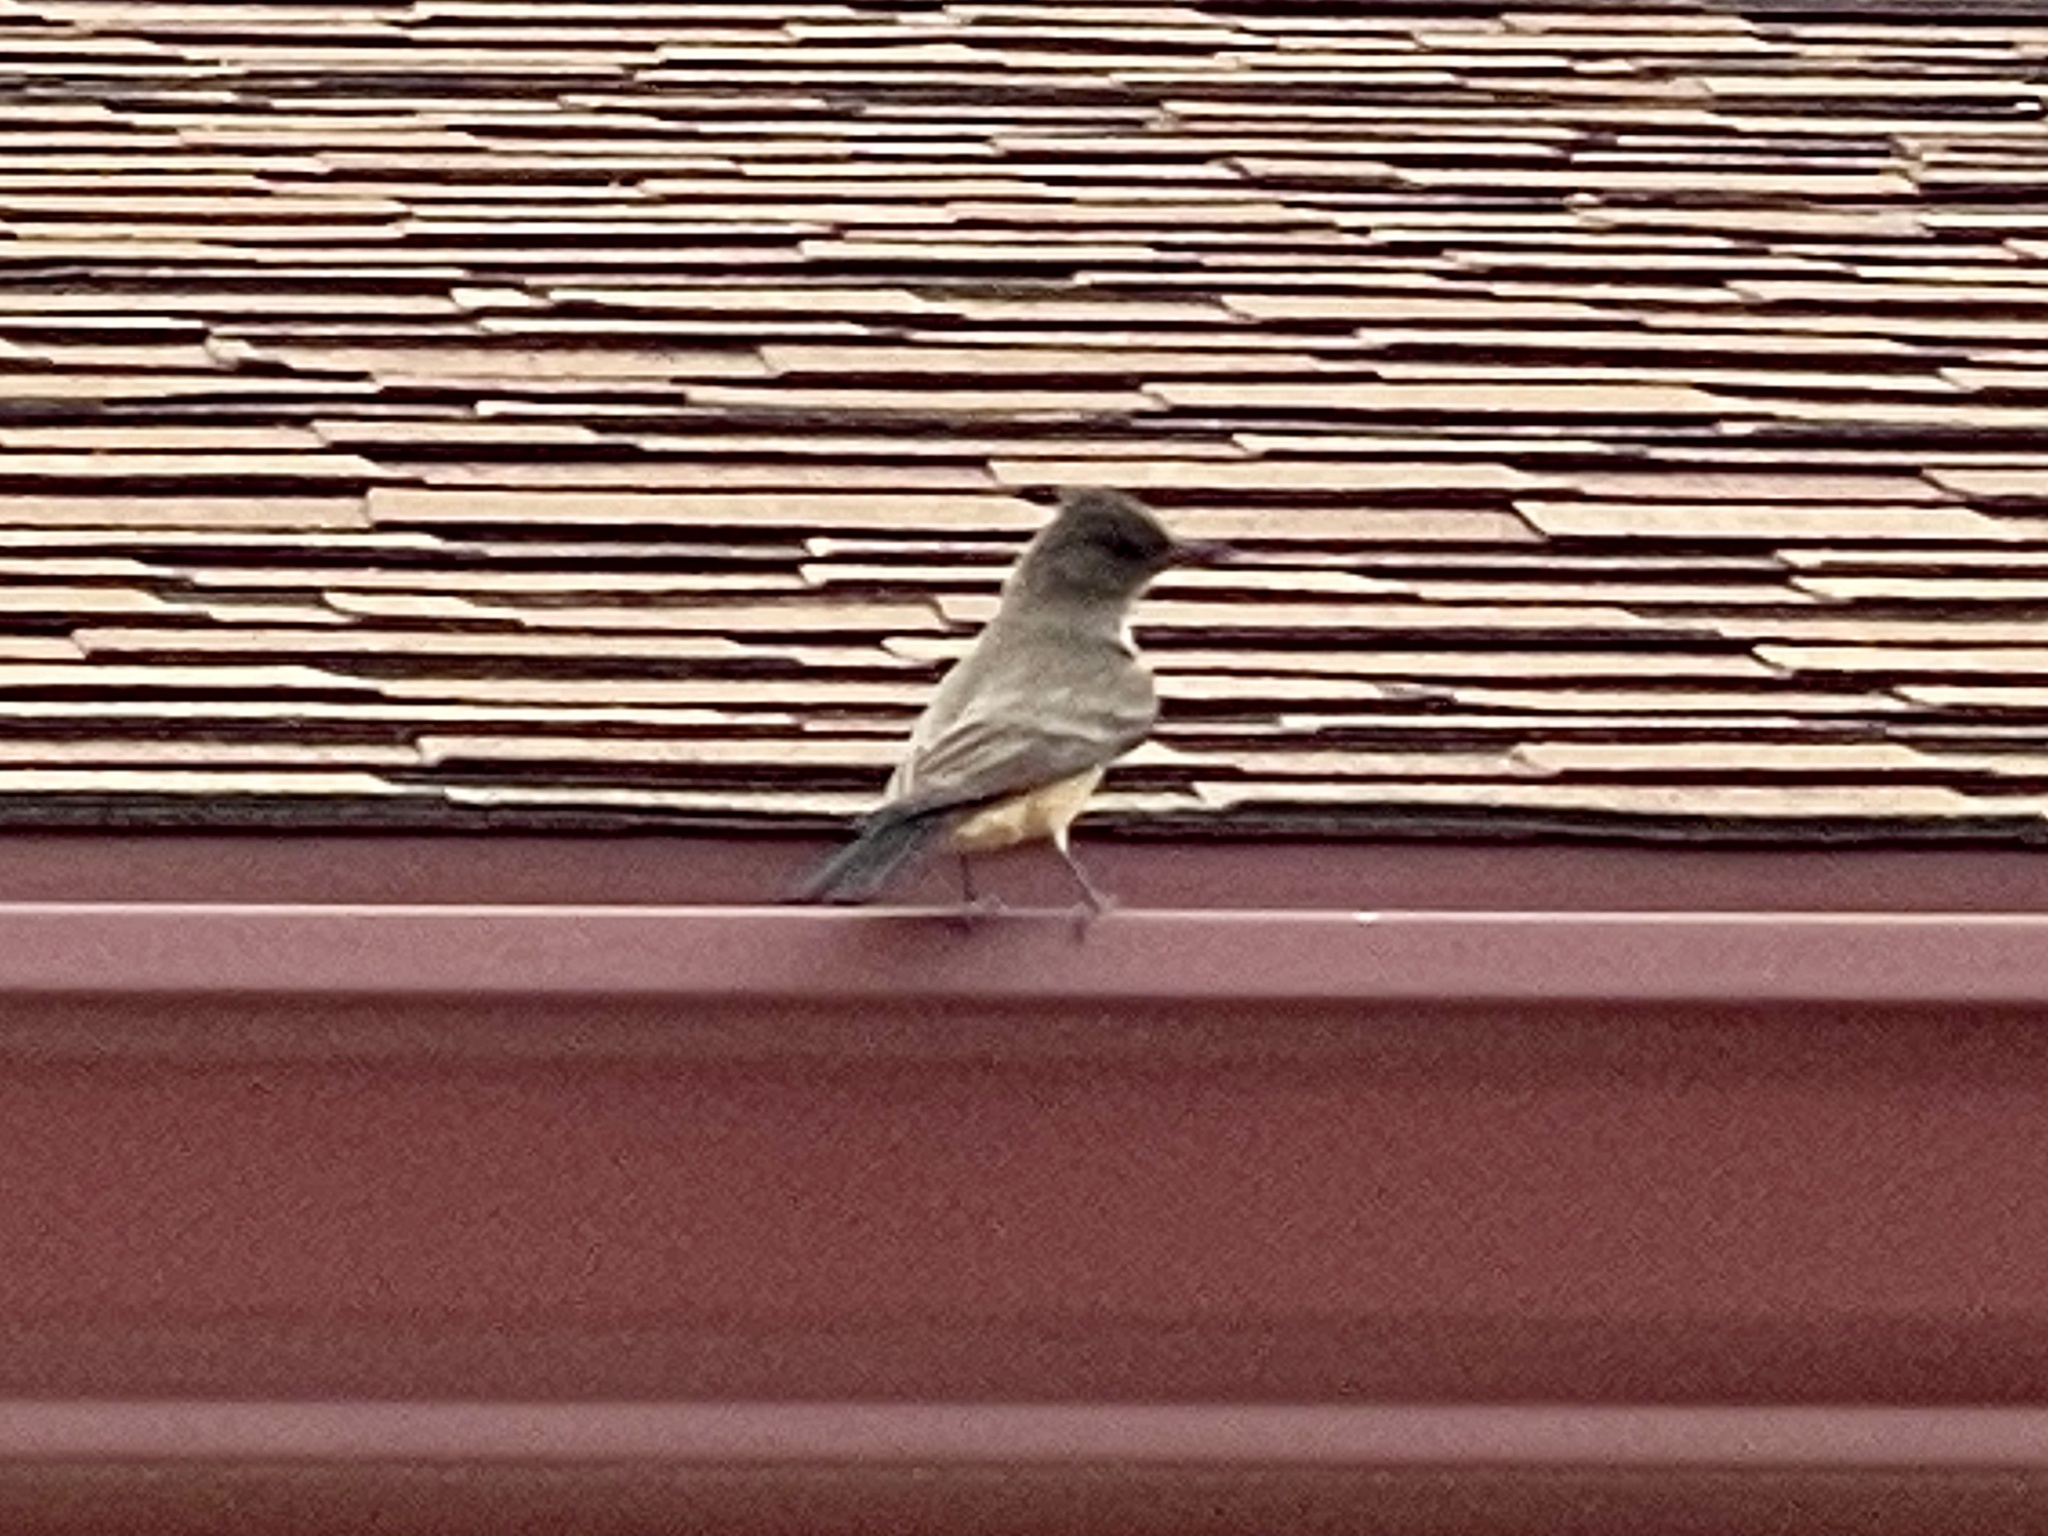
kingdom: Animalia
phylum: Chordata
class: Aves
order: Passeriformes
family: Tyrannidae
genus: Sayornis
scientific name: Sayornis saya
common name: Say's phoebe
